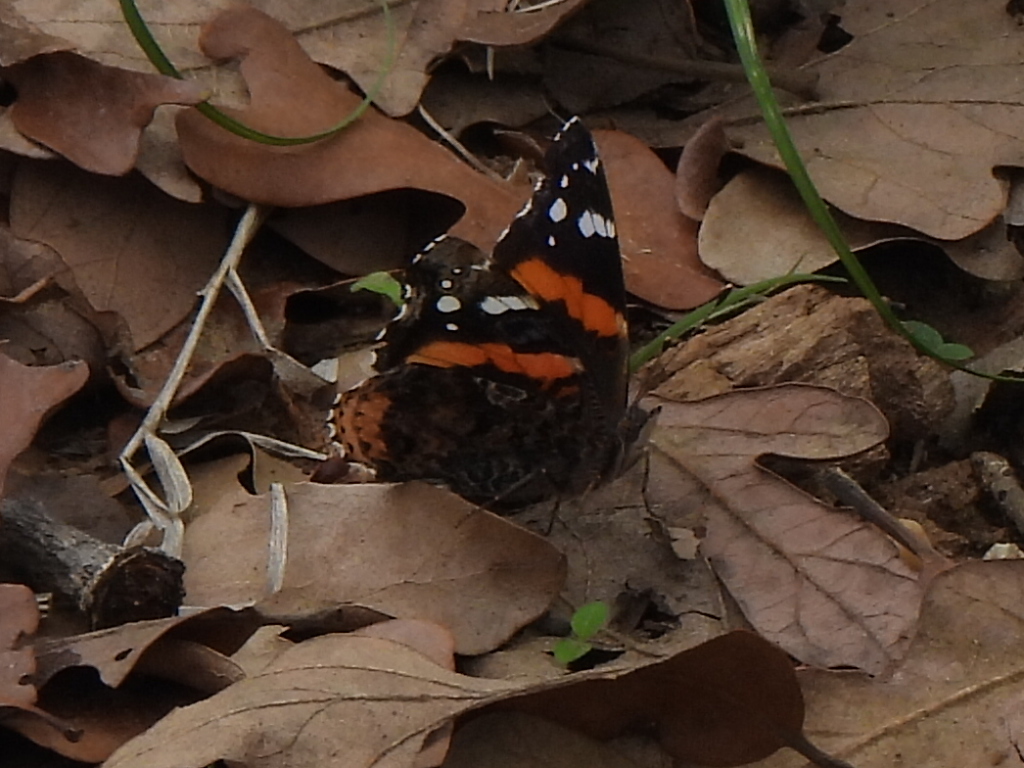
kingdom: Animalia
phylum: Arthropoda
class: Insecta
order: Lepidoptera
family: Nymphalidae
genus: Vanessa
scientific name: Vanessa atalanta
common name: Red admiral
